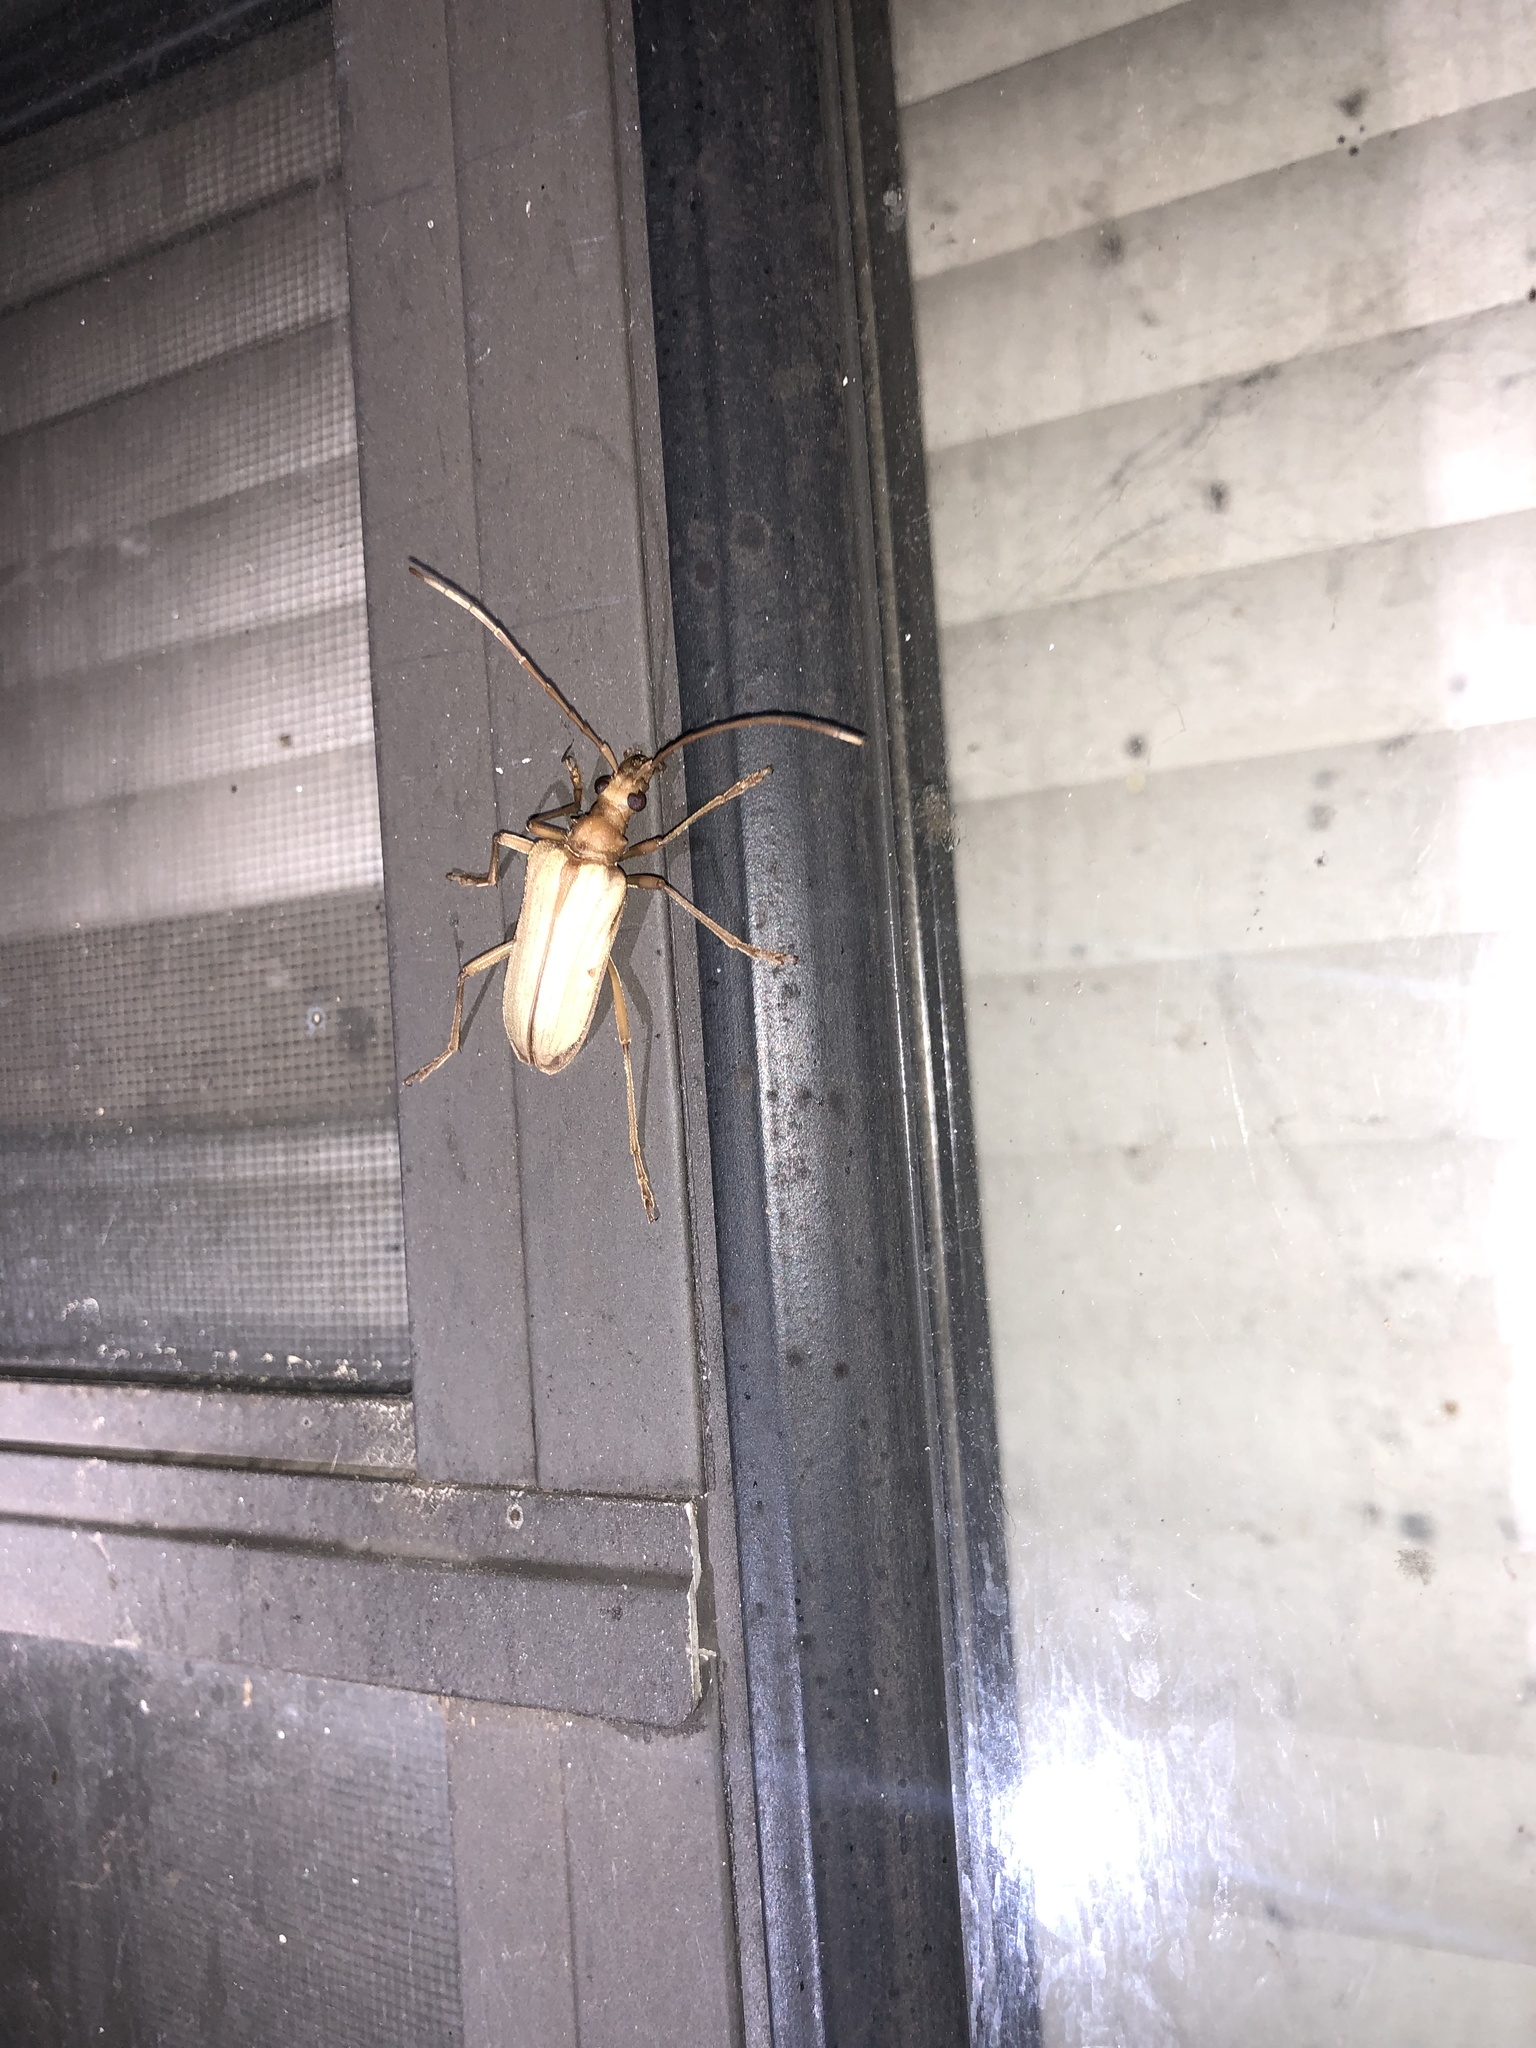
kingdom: Animalia
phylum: Arthropoda
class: Insecta
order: Coleoptera
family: Cerambycidae
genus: Centrodera
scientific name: Centrodera spurca
